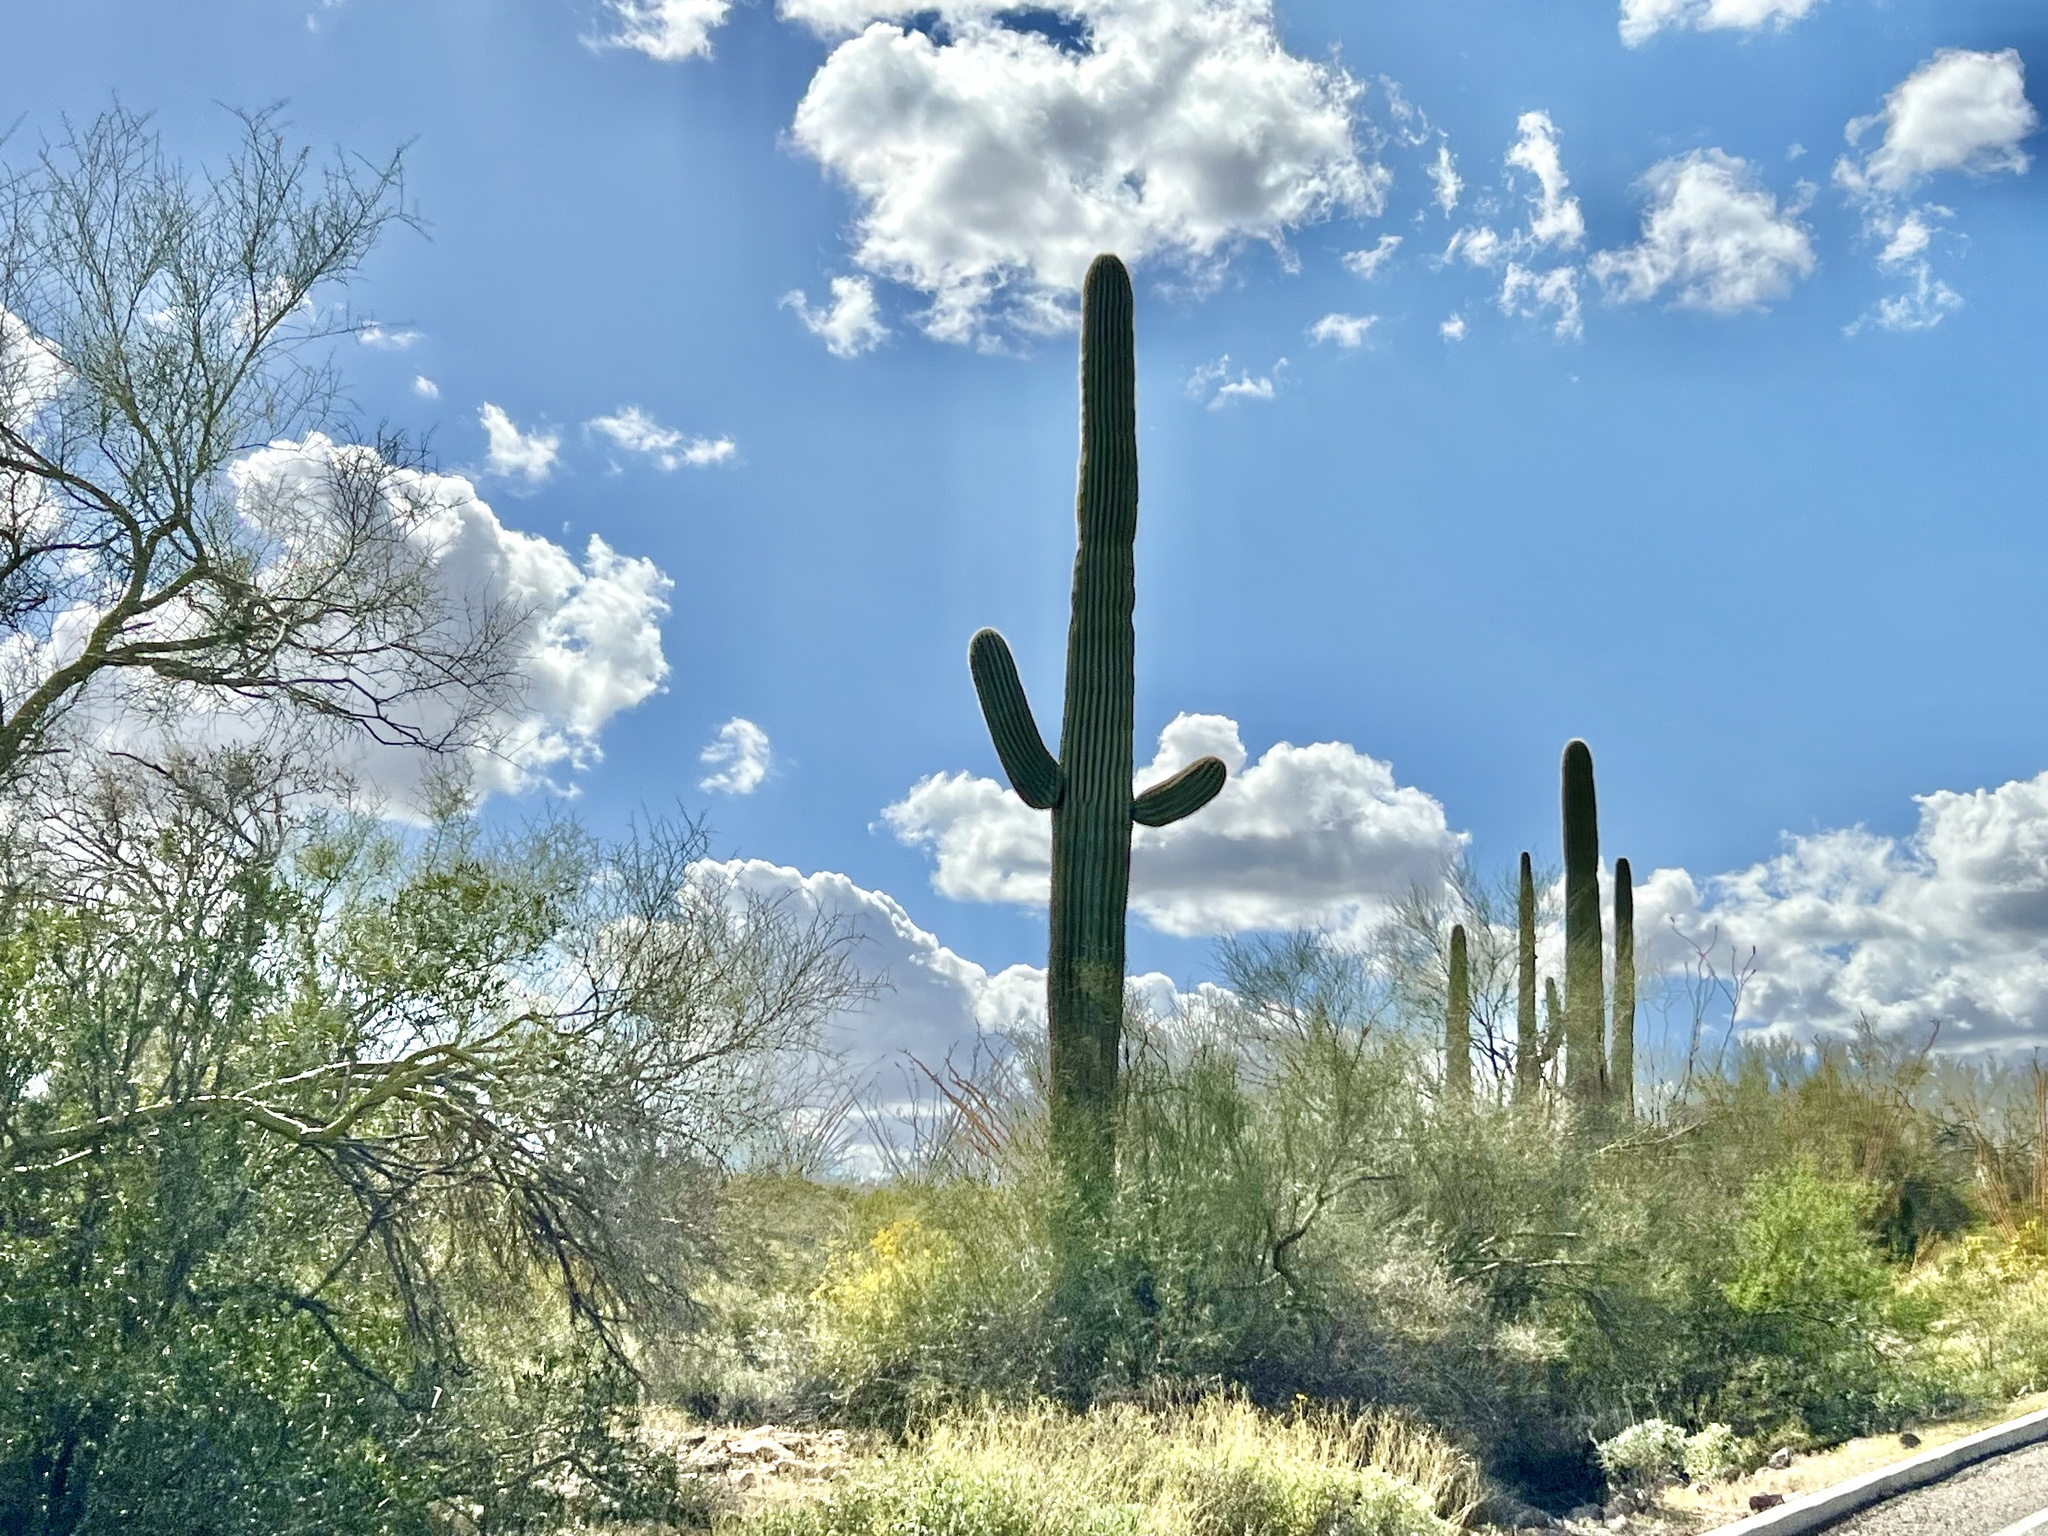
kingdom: Plantae
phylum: Tracheophyta
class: Magnoliopsida
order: Caryophyllales
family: Cactaceae
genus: Carnegiea
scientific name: Carnegiea gigantea
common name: Saguaro
